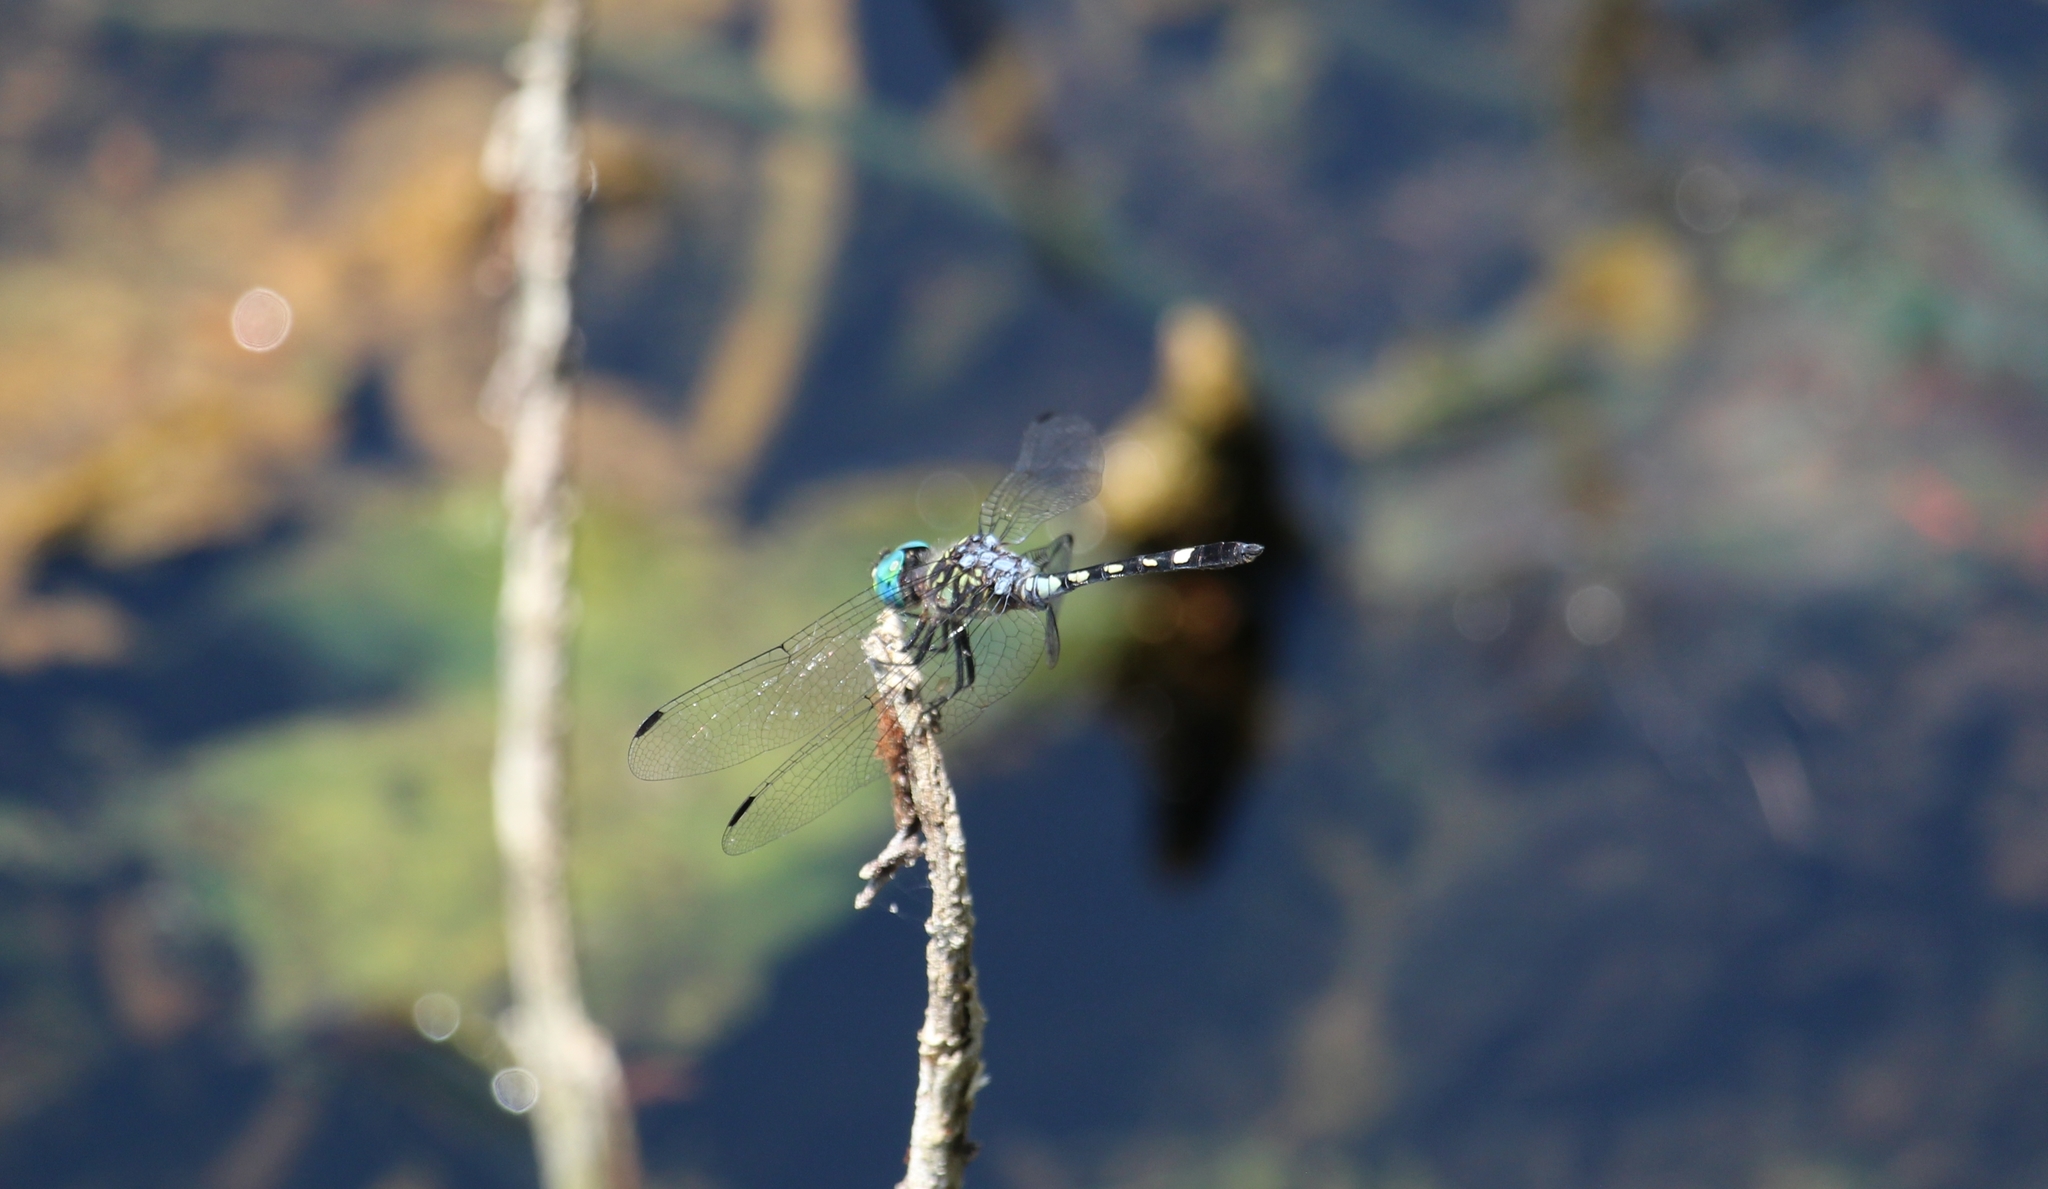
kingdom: Animalia
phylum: Arthropoda
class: Insecta
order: Odonata
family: Libellulidae
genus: Micrathyria
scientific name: Micrathyria hagenii
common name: Thornbush dasher
